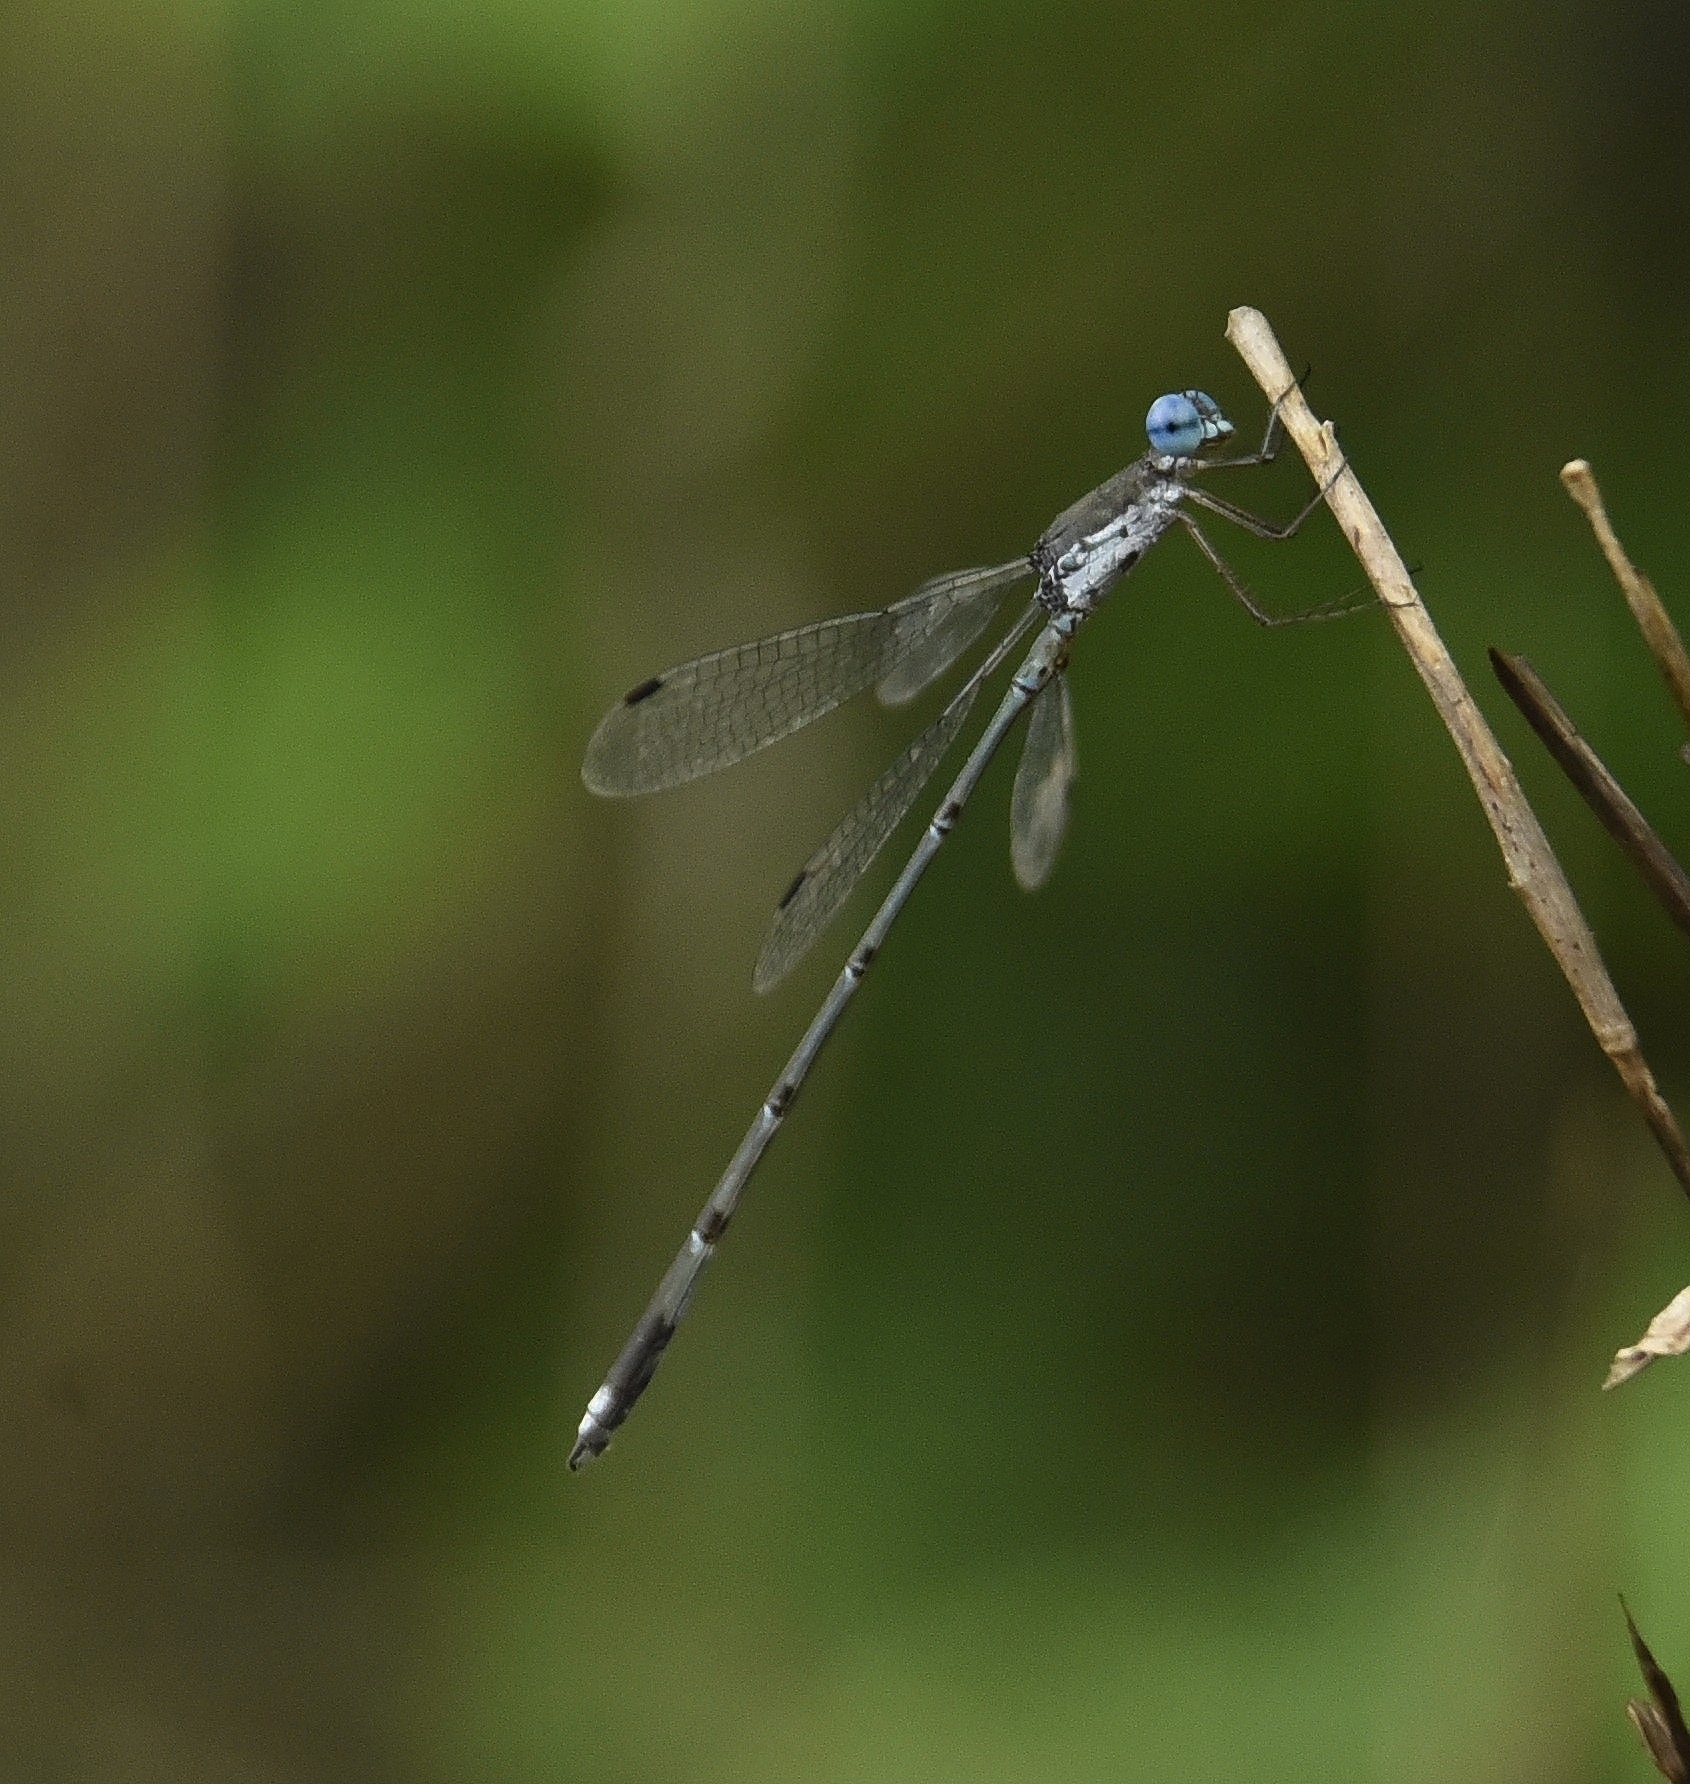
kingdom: Animalia
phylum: Arthropoda
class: Insecta
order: Odonata
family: Lestidae
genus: Lestes
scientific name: Lestes malabaricus
